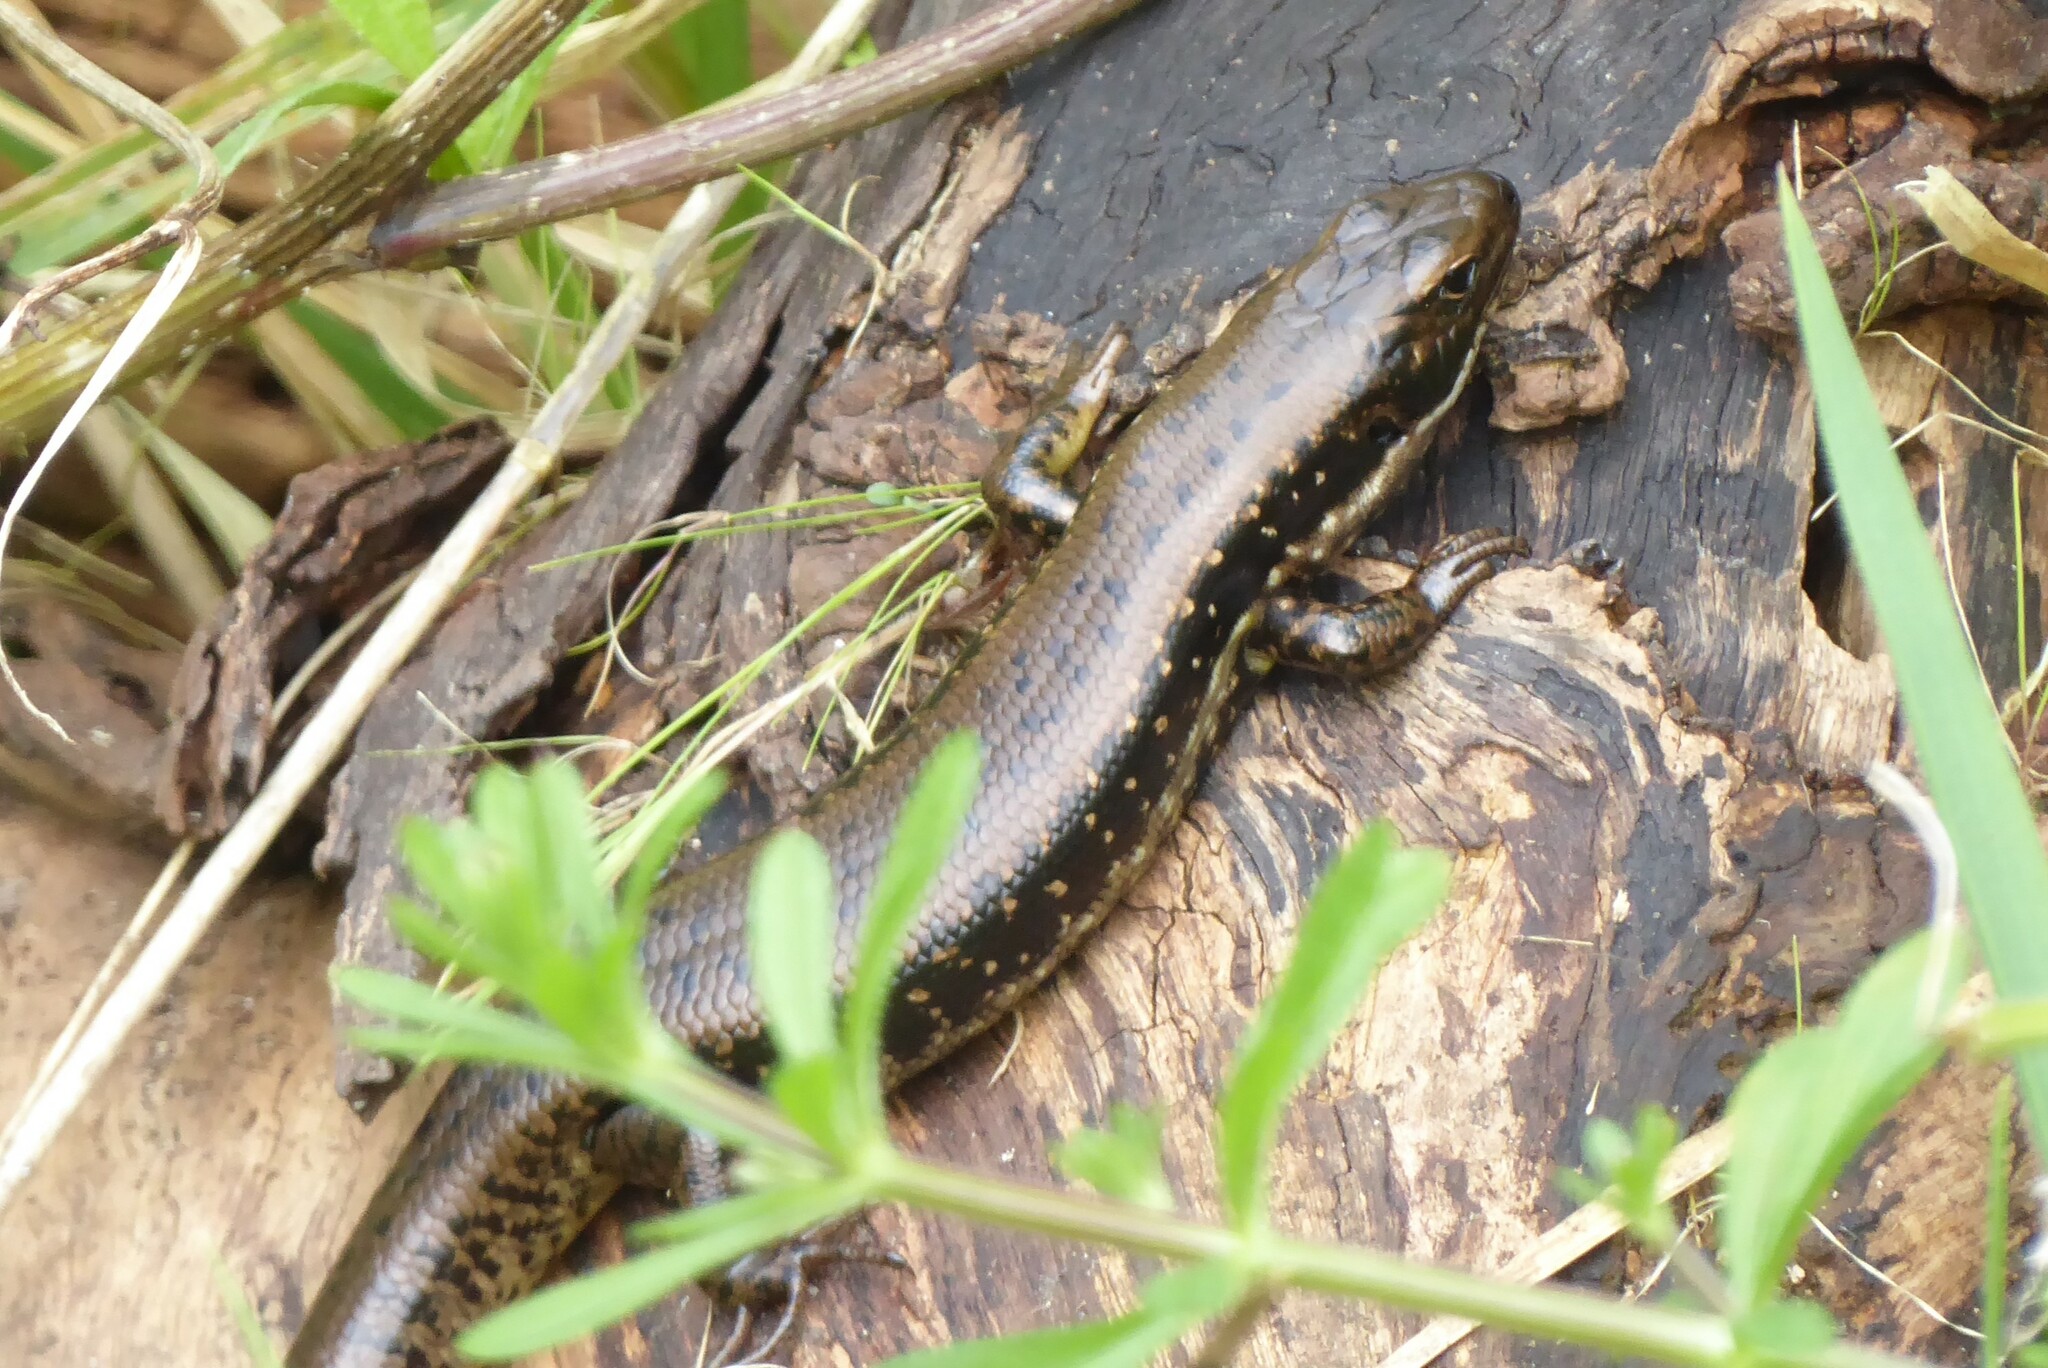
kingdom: Animalia
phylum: Chordata
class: Squamata
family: Scincidae
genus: Eulamprus
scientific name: Eulamprus tympanum
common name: Cool-temperate water-skink
